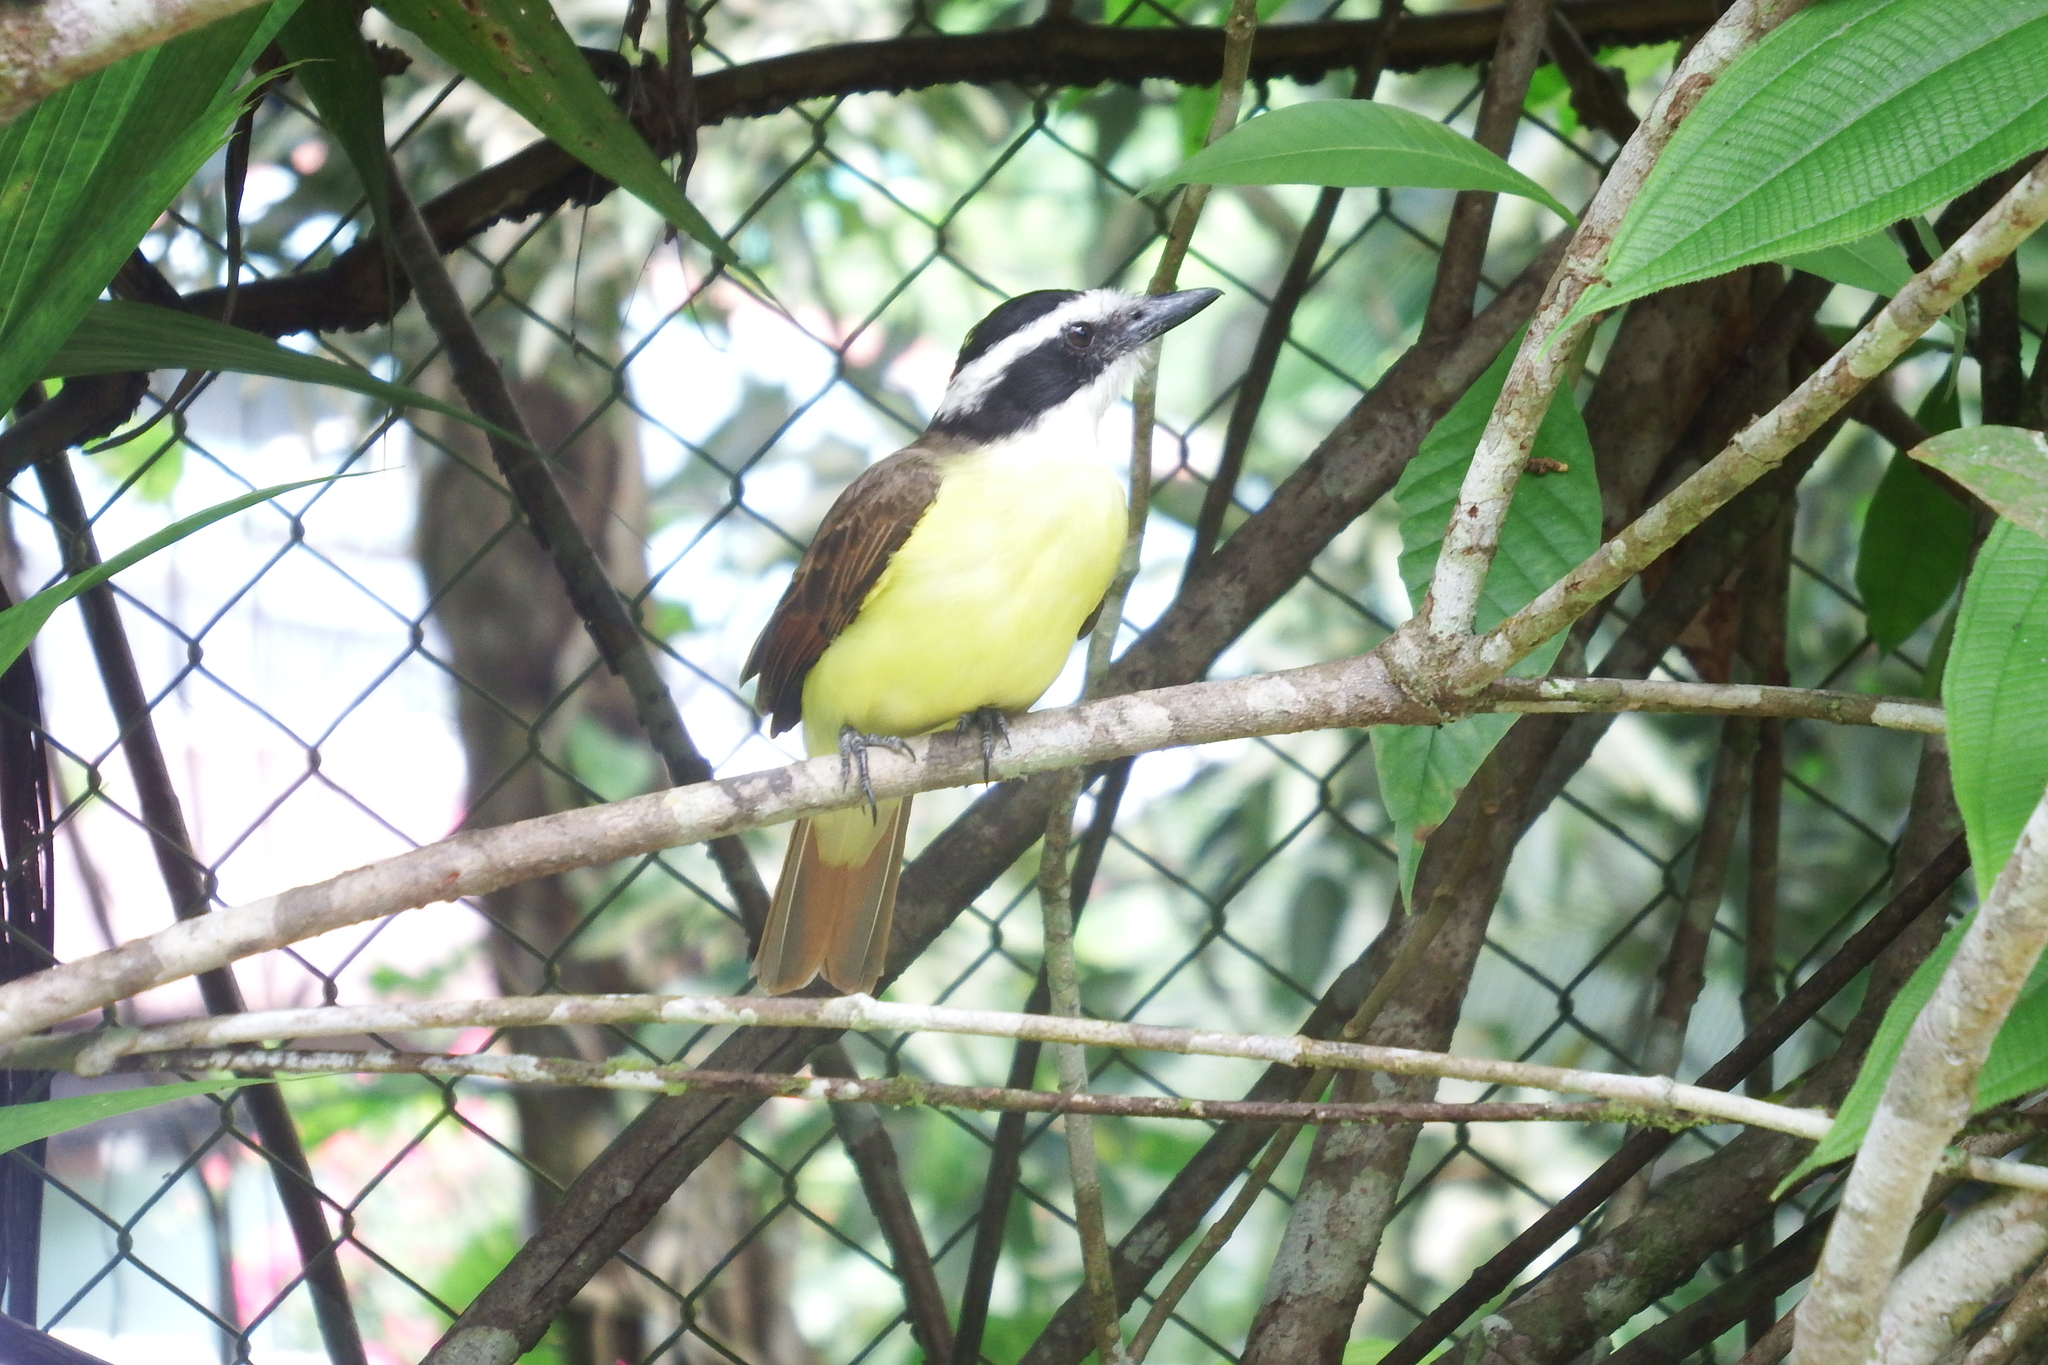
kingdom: Animalia
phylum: Chordata
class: Aves
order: Passeriformes
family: Tyrannidae
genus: Pitangus
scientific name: Pitangus sulphuratus
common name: Great kiskadee
